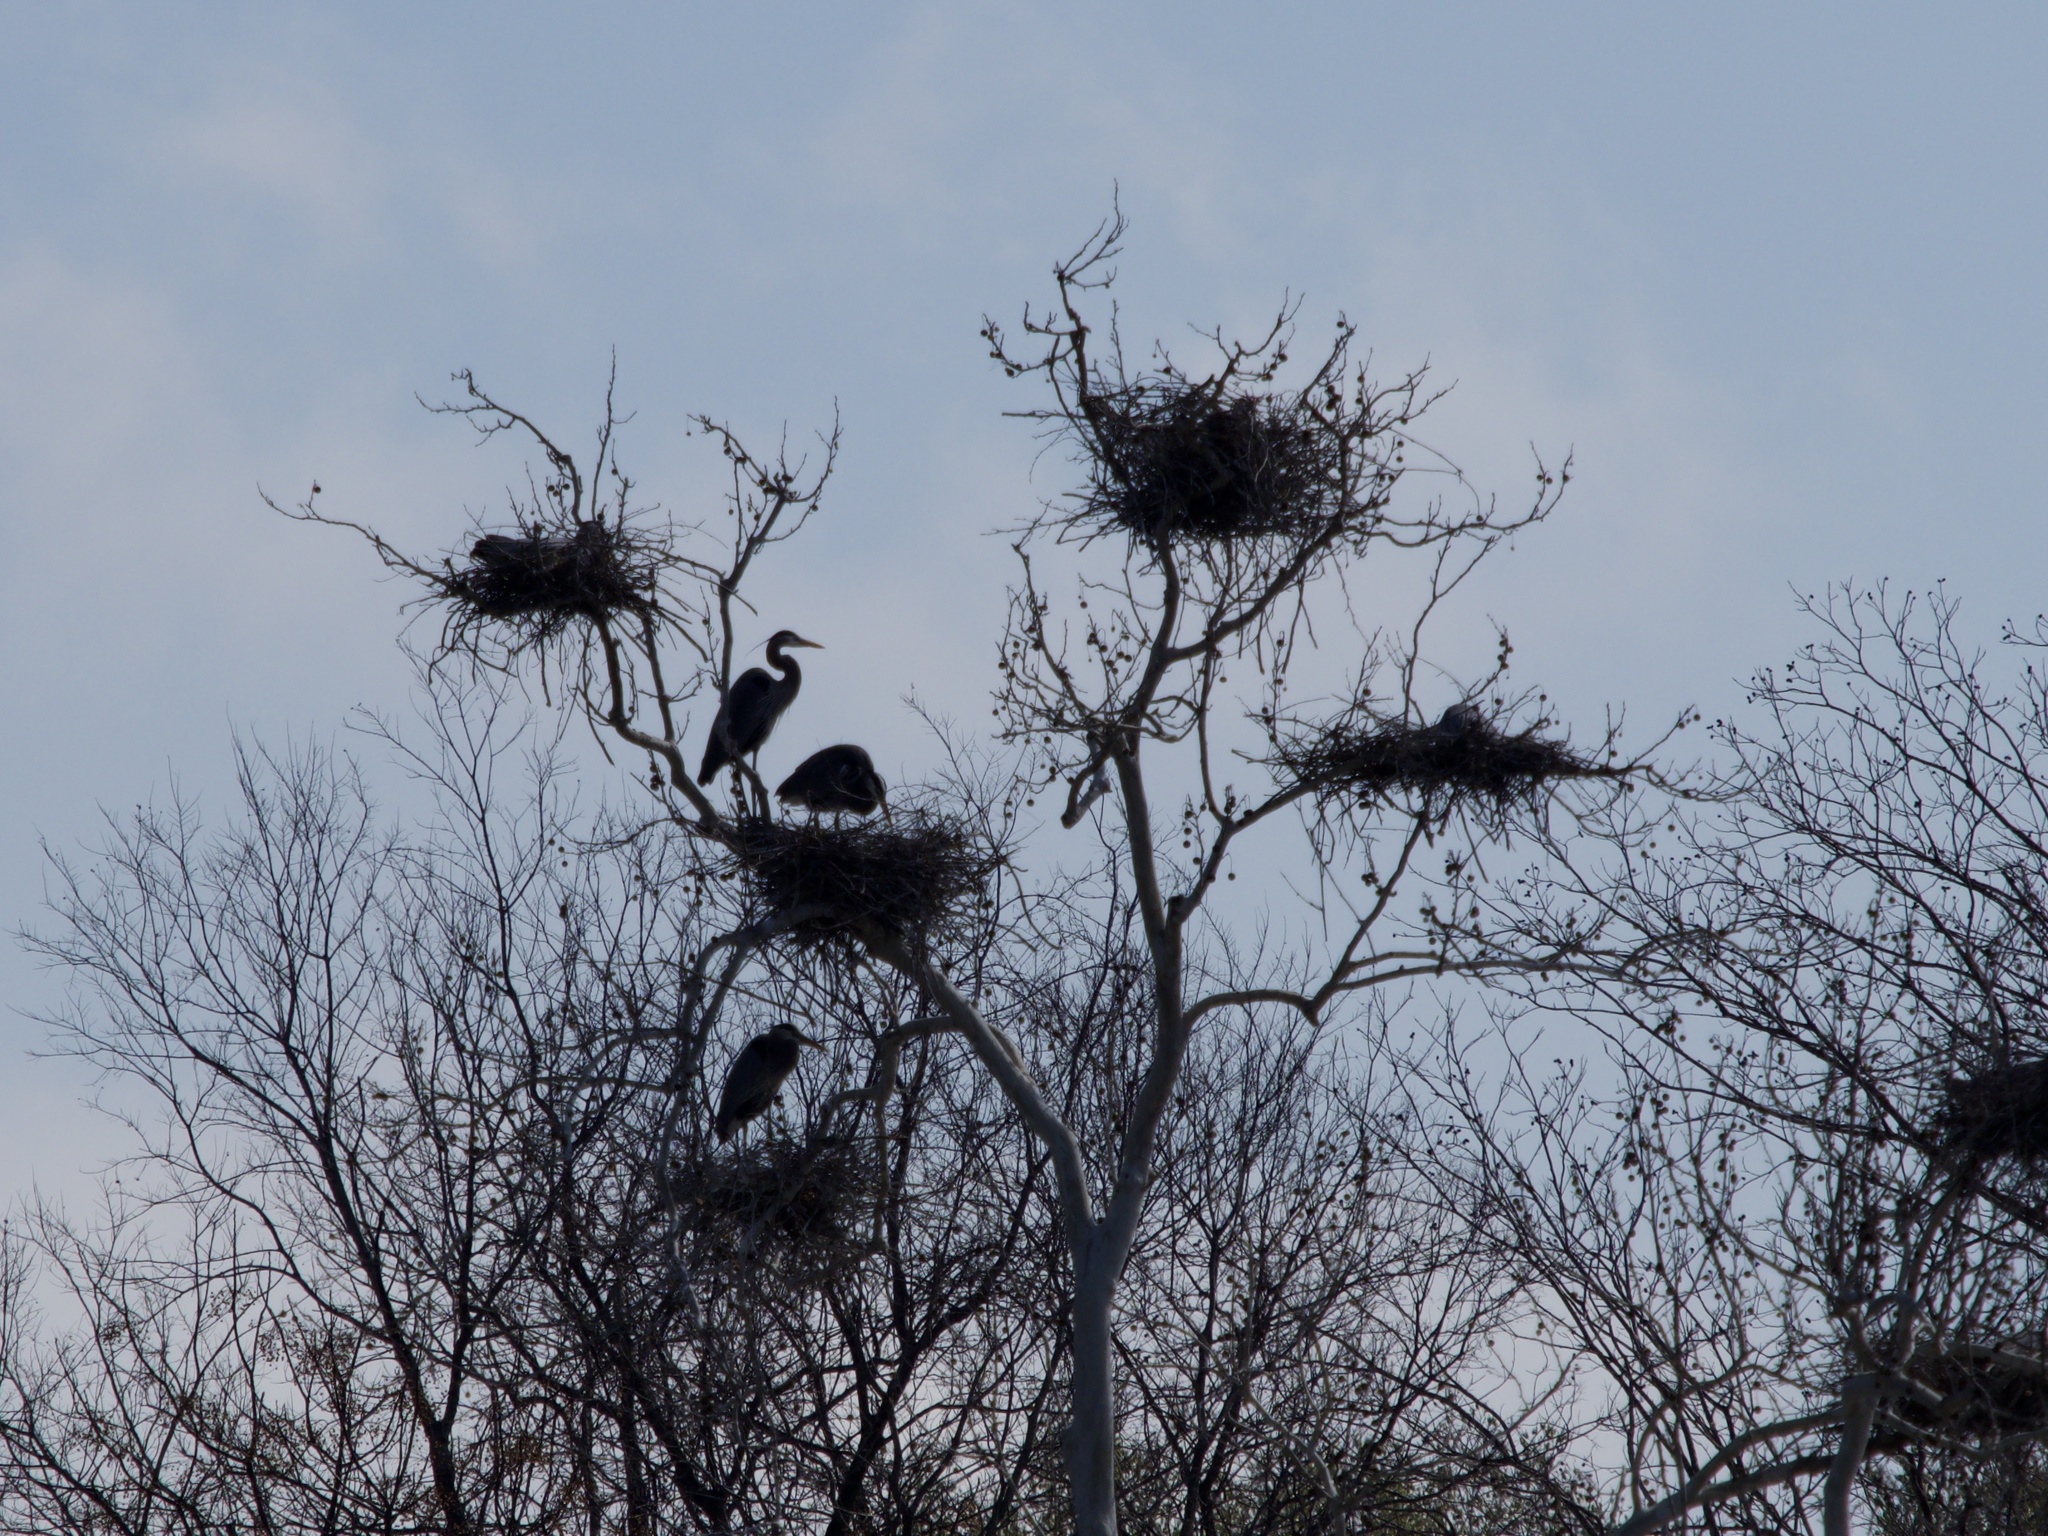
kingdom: Animalia
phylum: Chordata
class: Aves
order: Pelecaniformes
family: Ardeidae
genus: Ardea
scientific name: Ardea herodias
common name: Great blue heron
